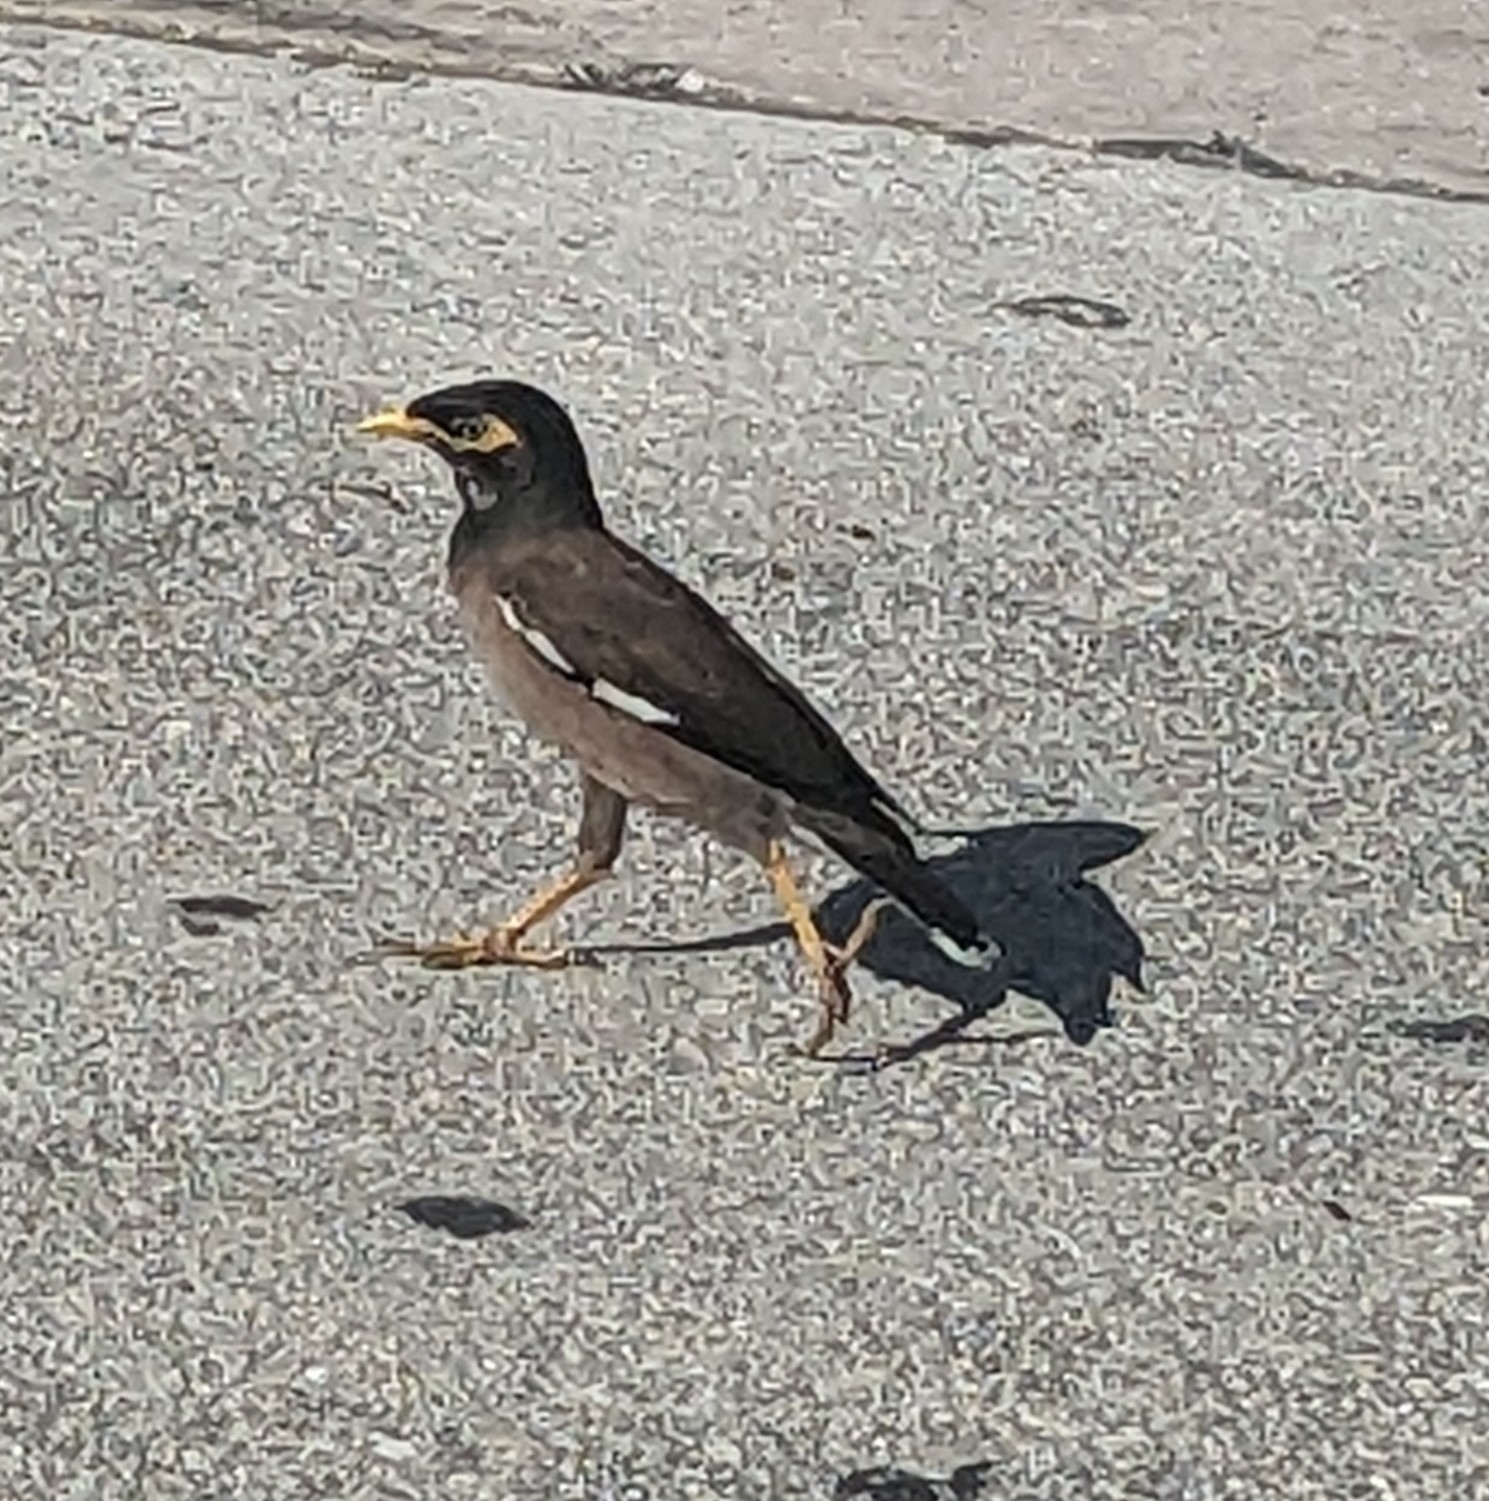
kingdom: Animalia
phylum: Chordata
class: Aves
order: Passeriformes
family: Sturnidae
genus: Acridotheres
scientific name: Acridotheres tristis
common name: Common myna
